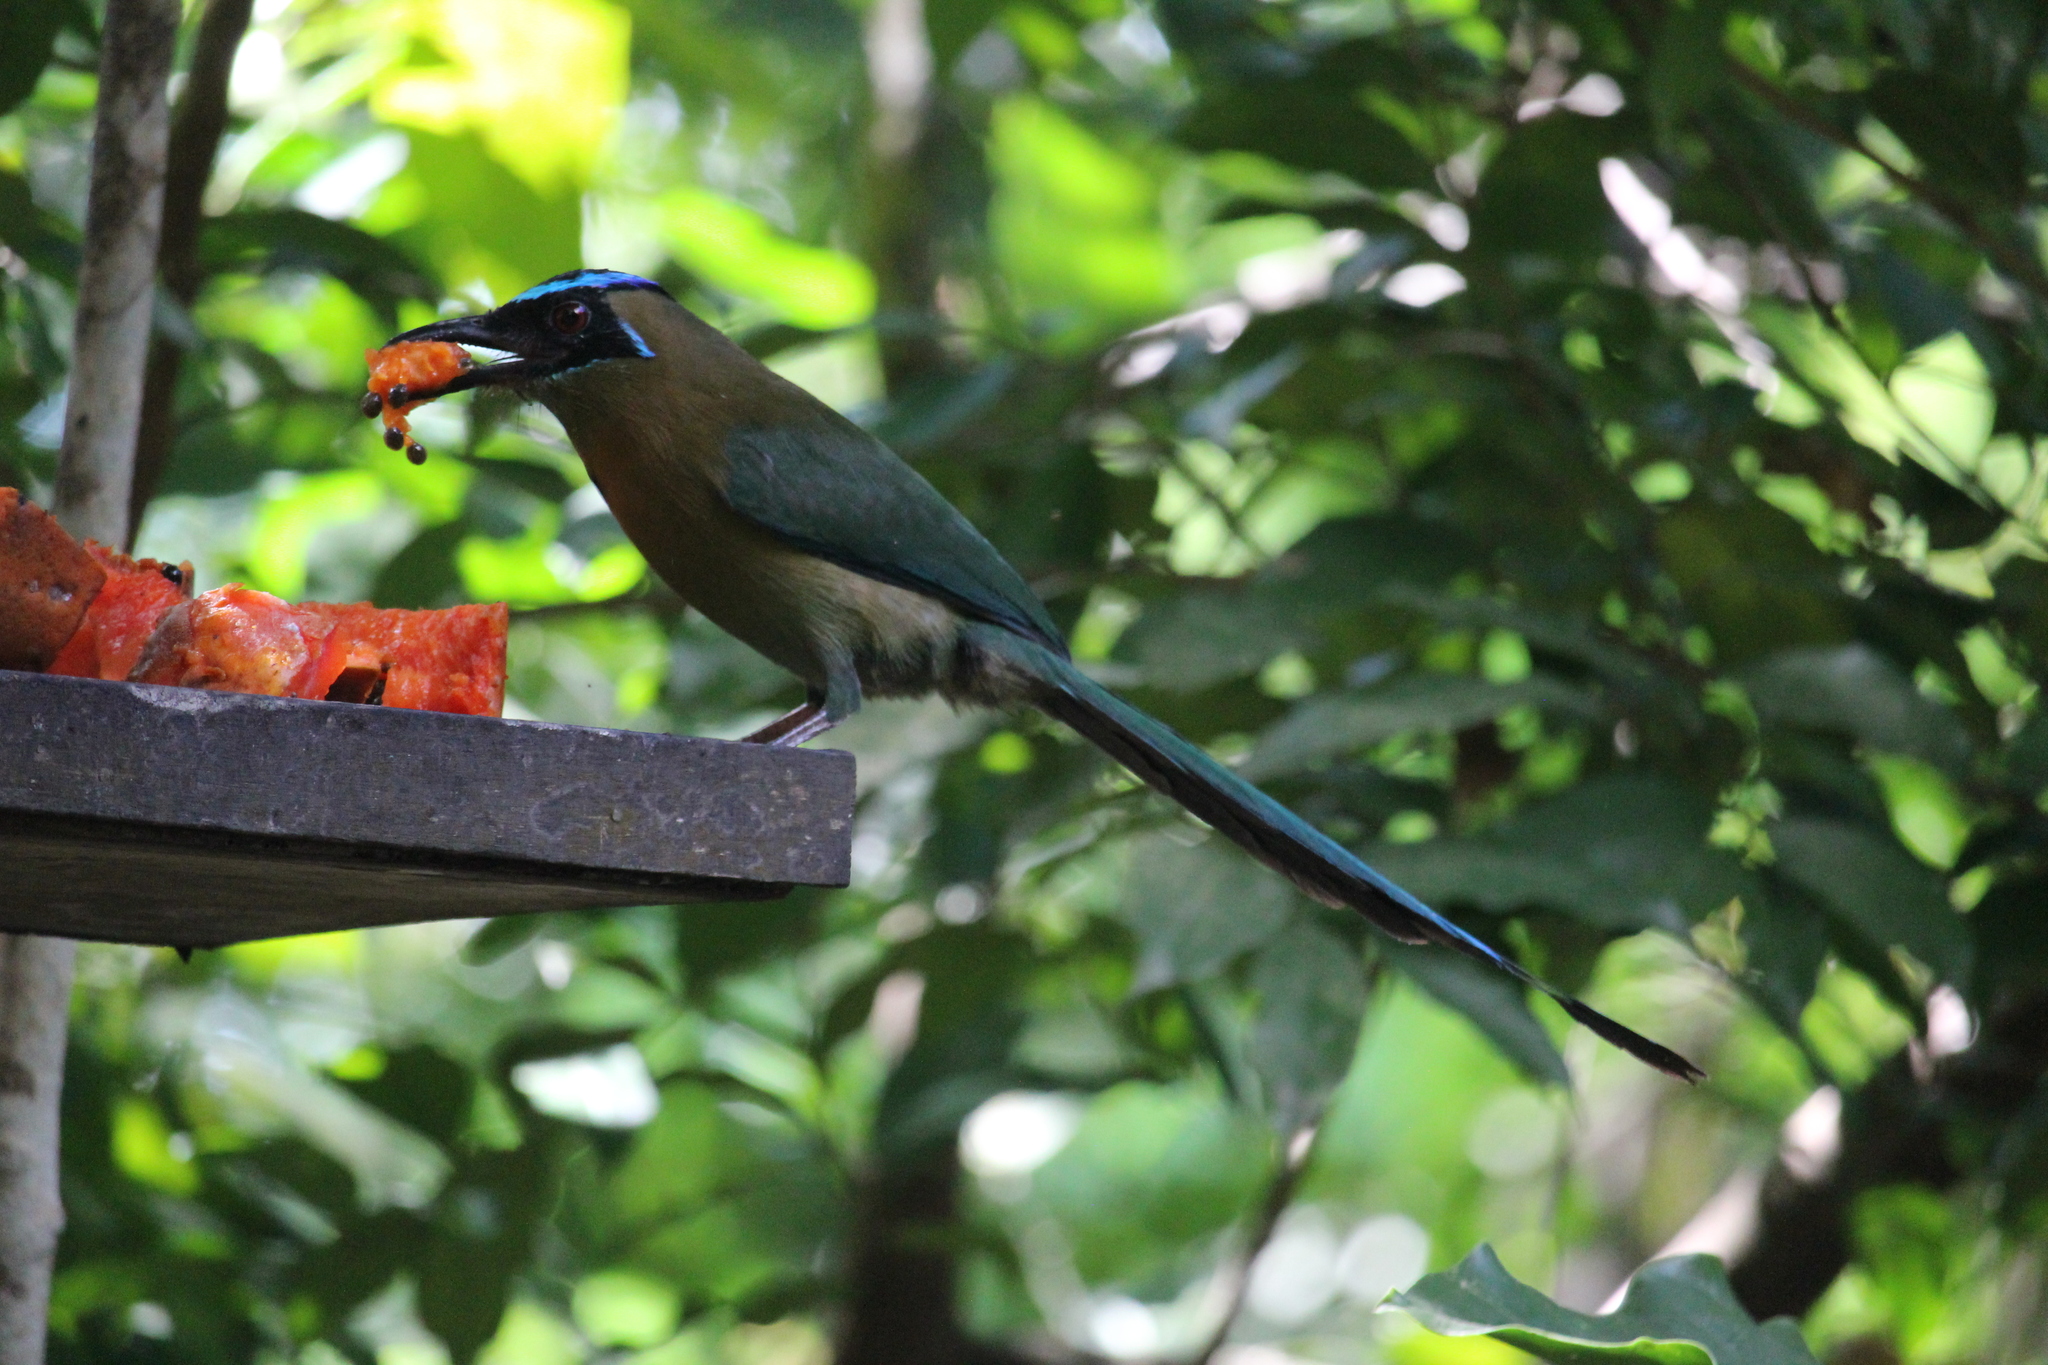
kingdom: Animalia
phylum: Chordata
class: Aves
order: Coraciiformes
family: Momotidae
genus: Momotus
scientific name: Momotus lessonii
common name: Lesson's motmot
